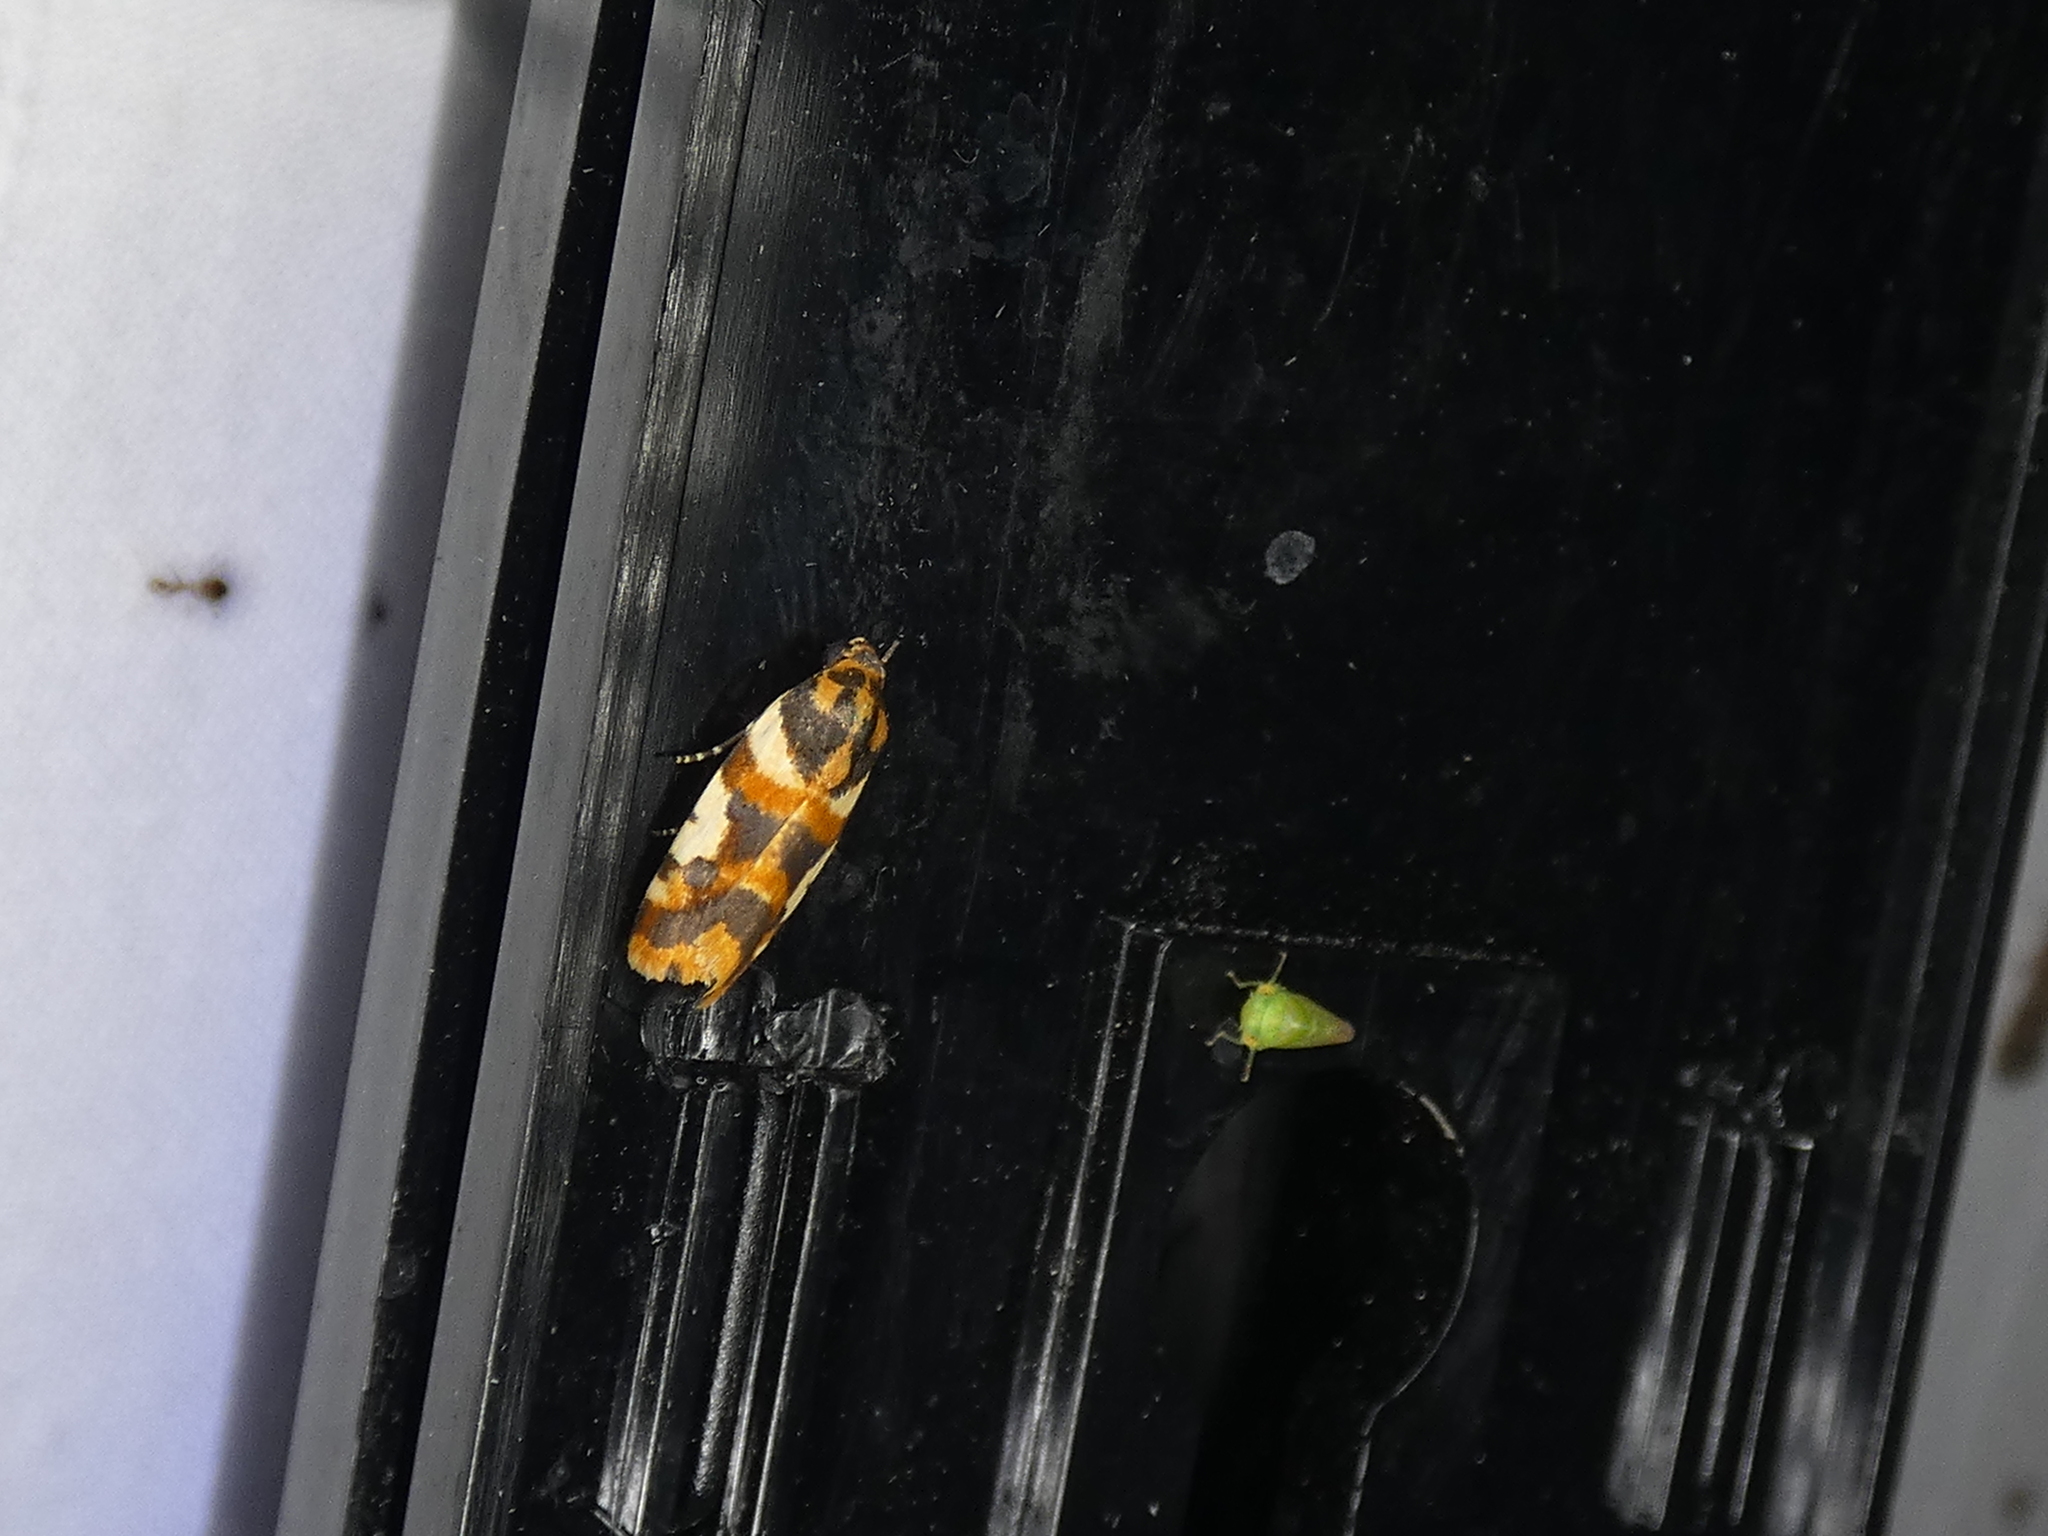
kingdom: Animalia
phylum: Arthropoda
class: Insecta
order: Lepidoptera
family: Noctuidae
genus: Acontia
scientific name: Acontia dama
